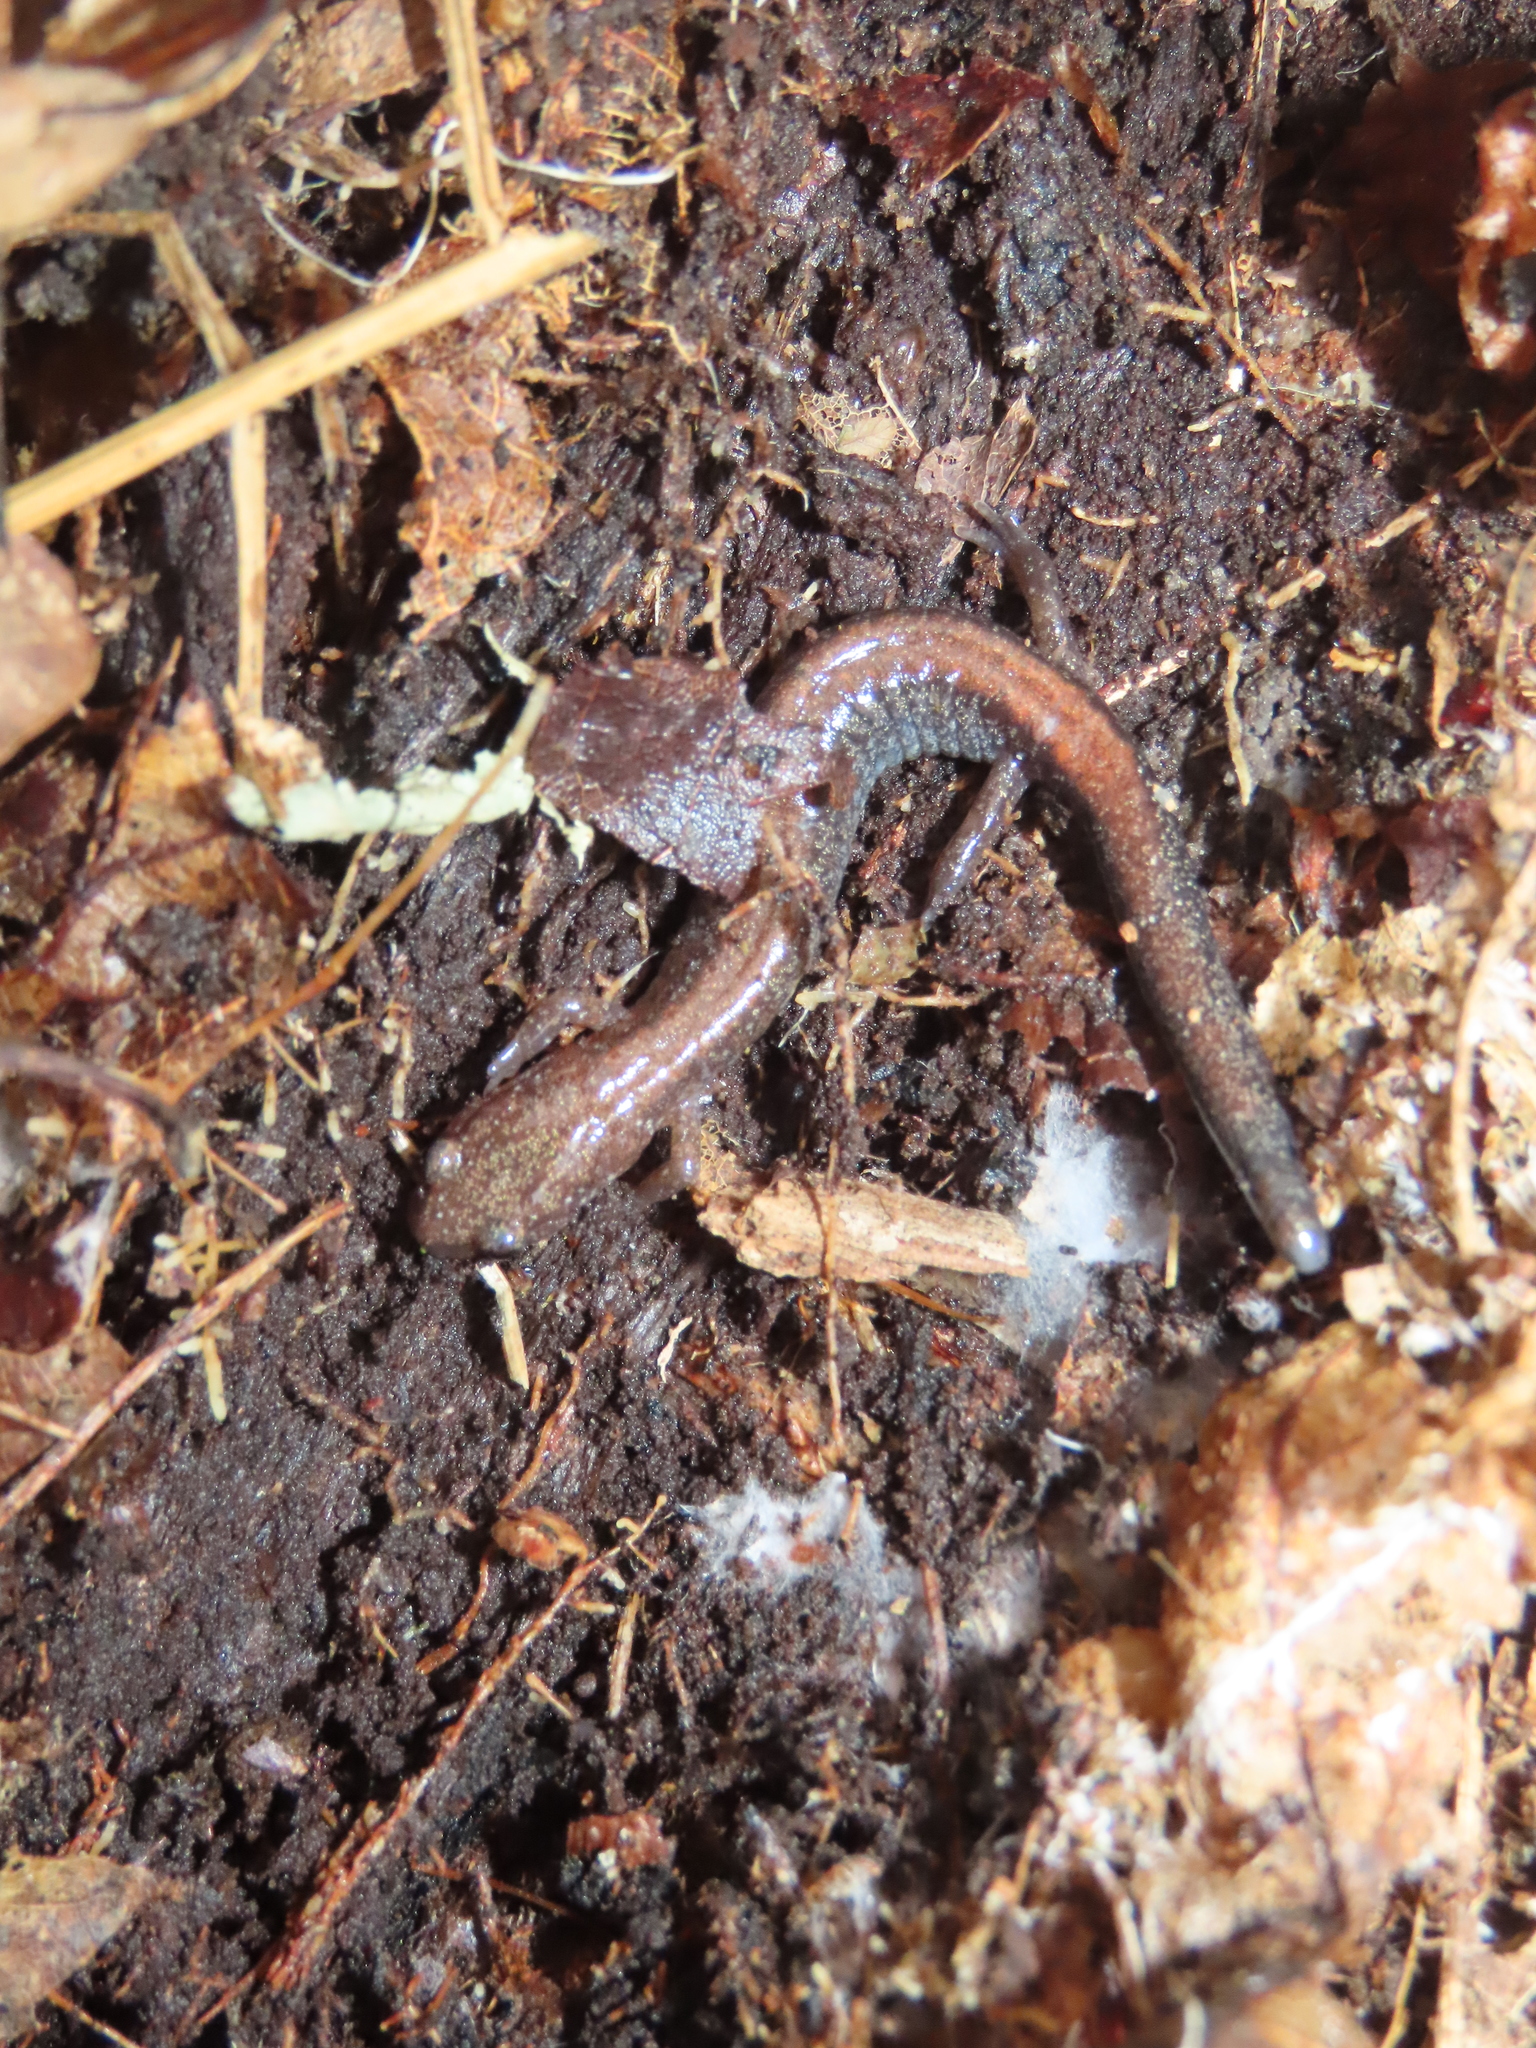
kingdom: Animalia
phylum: Chordata
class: Amphibia
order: Caudata
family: Plethodontidae
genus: Plethodon
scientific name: Plethodon cinereus
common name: Redback salamander
